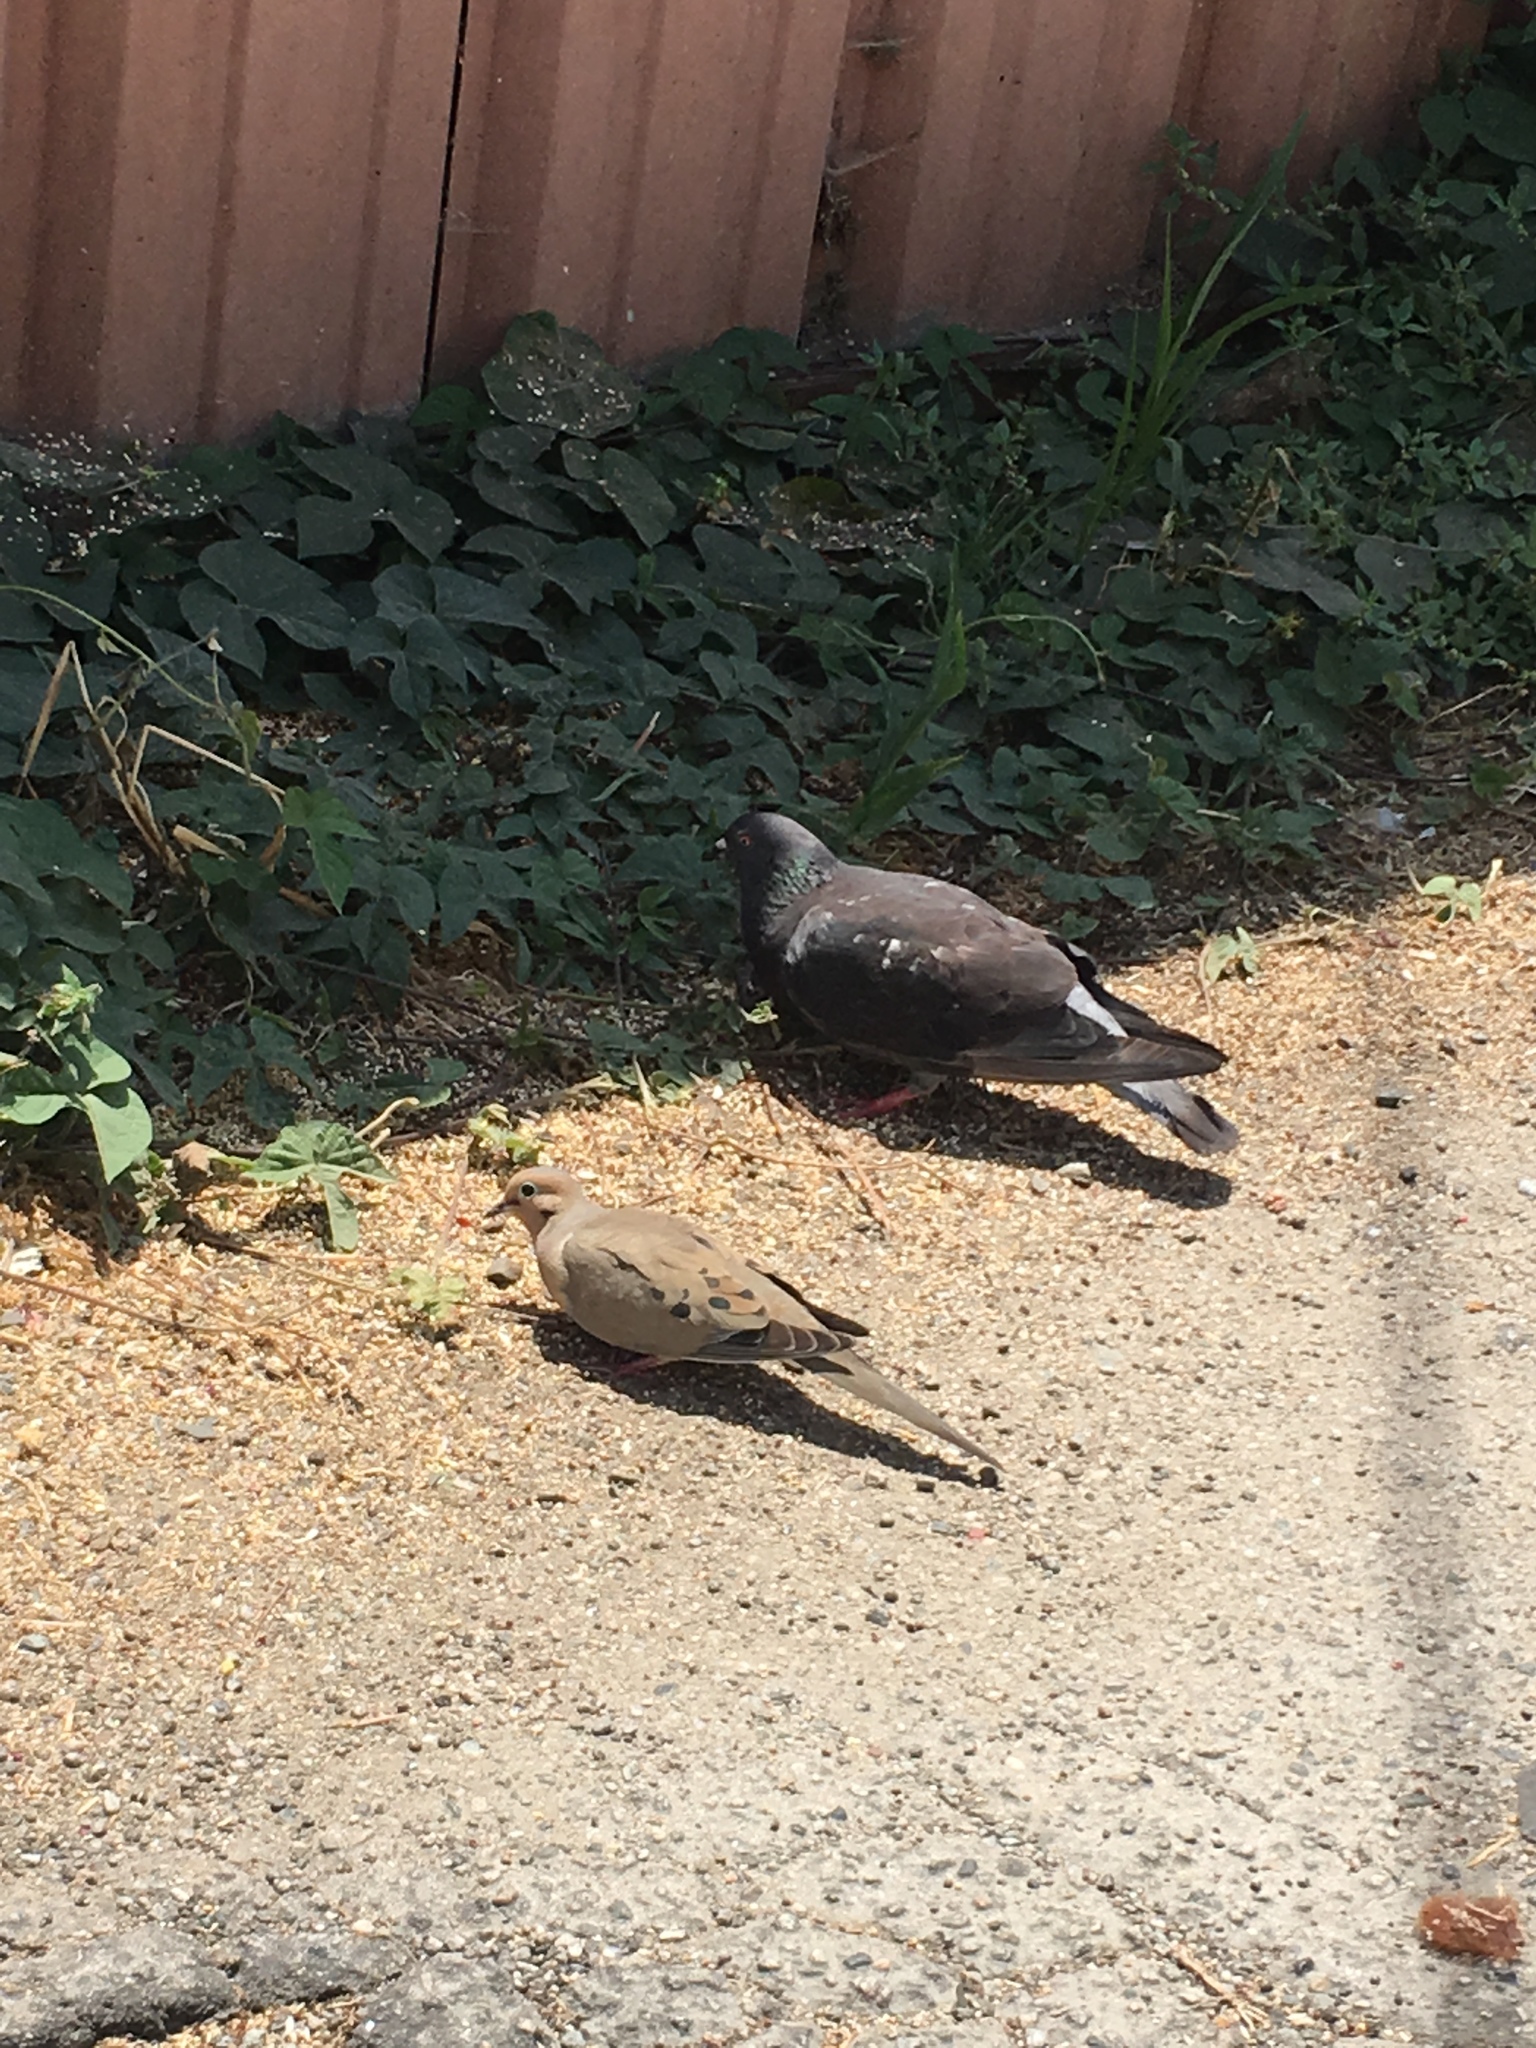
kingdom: Animalia
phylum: Chordata
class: Aves
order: Columbiformes
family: Columbidae
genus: Zenaida
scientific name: Zenaida macroura
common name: Mourning dove
